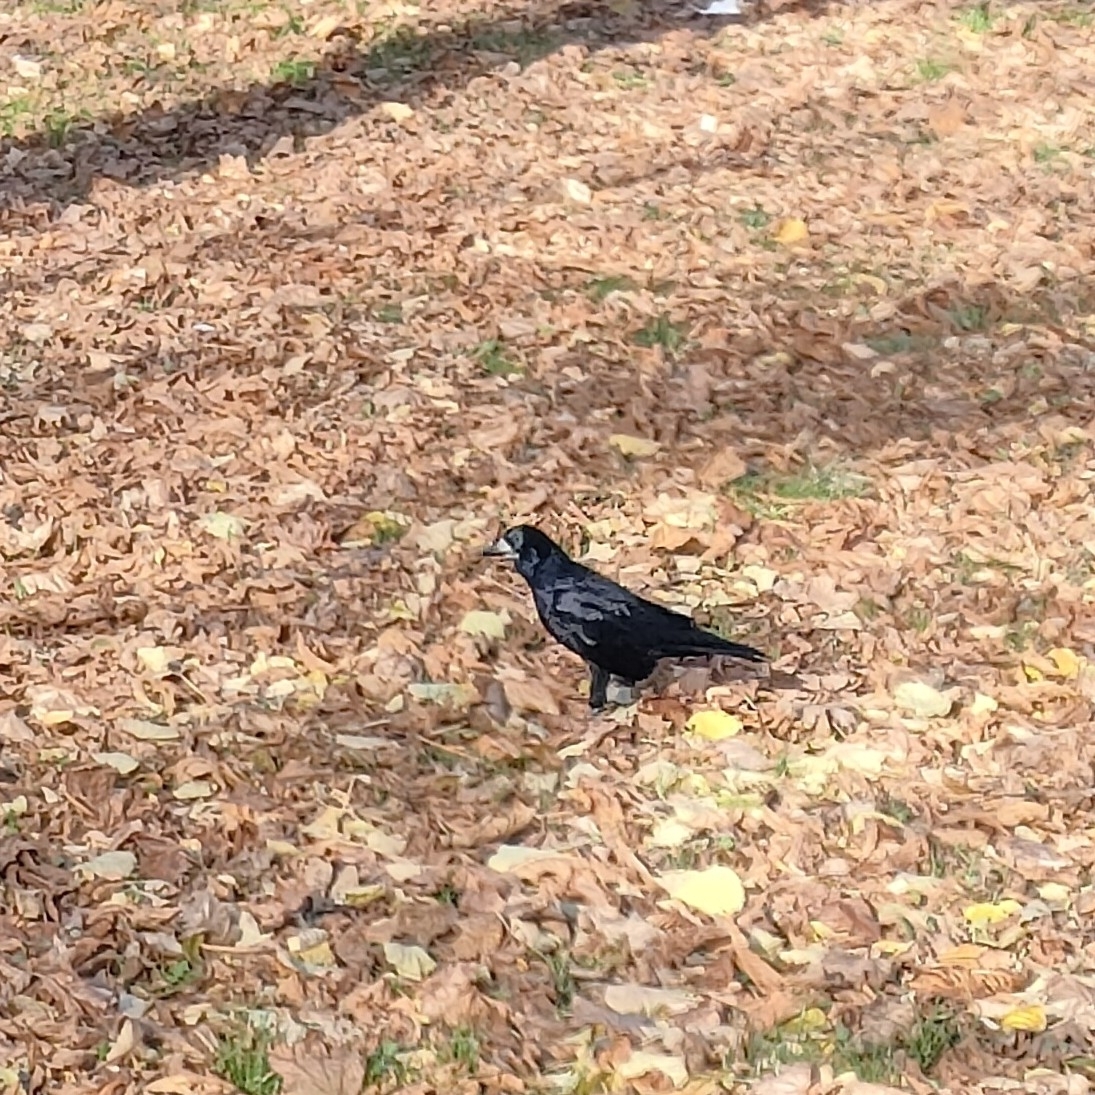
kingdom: Animalia
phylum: Chordata
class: Aves
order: Passeriformes
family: Corvidae
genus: Corvus
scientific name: Corvus frugilegus
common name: Rook
